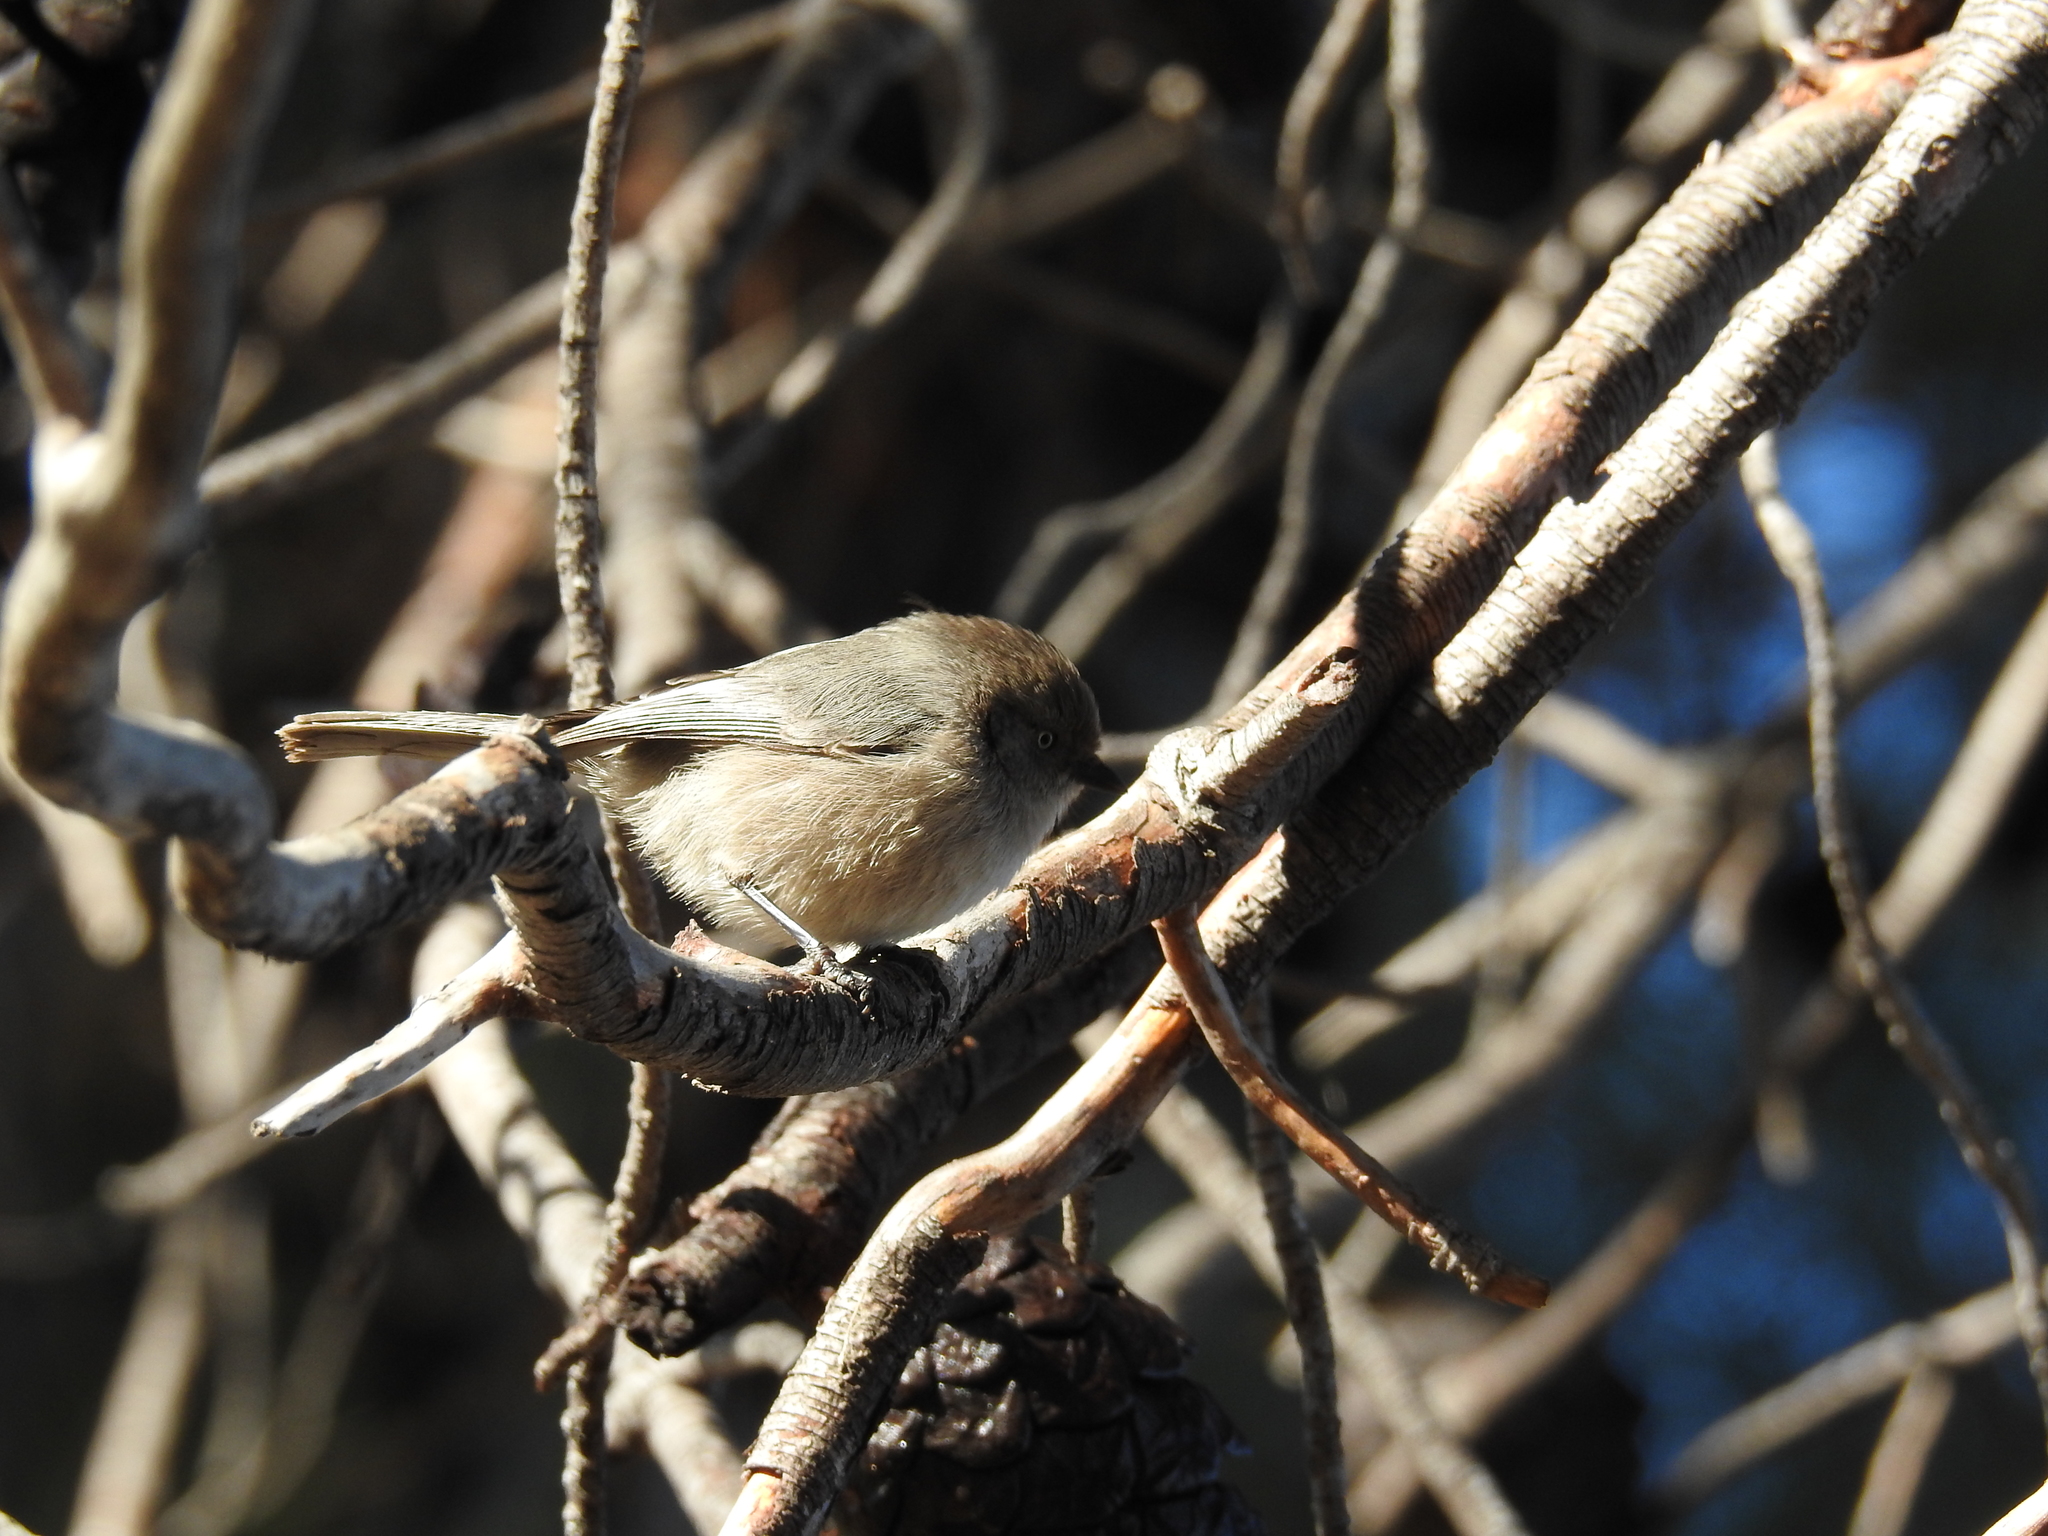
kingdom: Animalia
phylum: Chordata
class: Aves
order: Passeriformes
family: Aegithalidae
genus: Psaltriparus
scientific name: Psaltriparus minimus
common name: American bushtit
